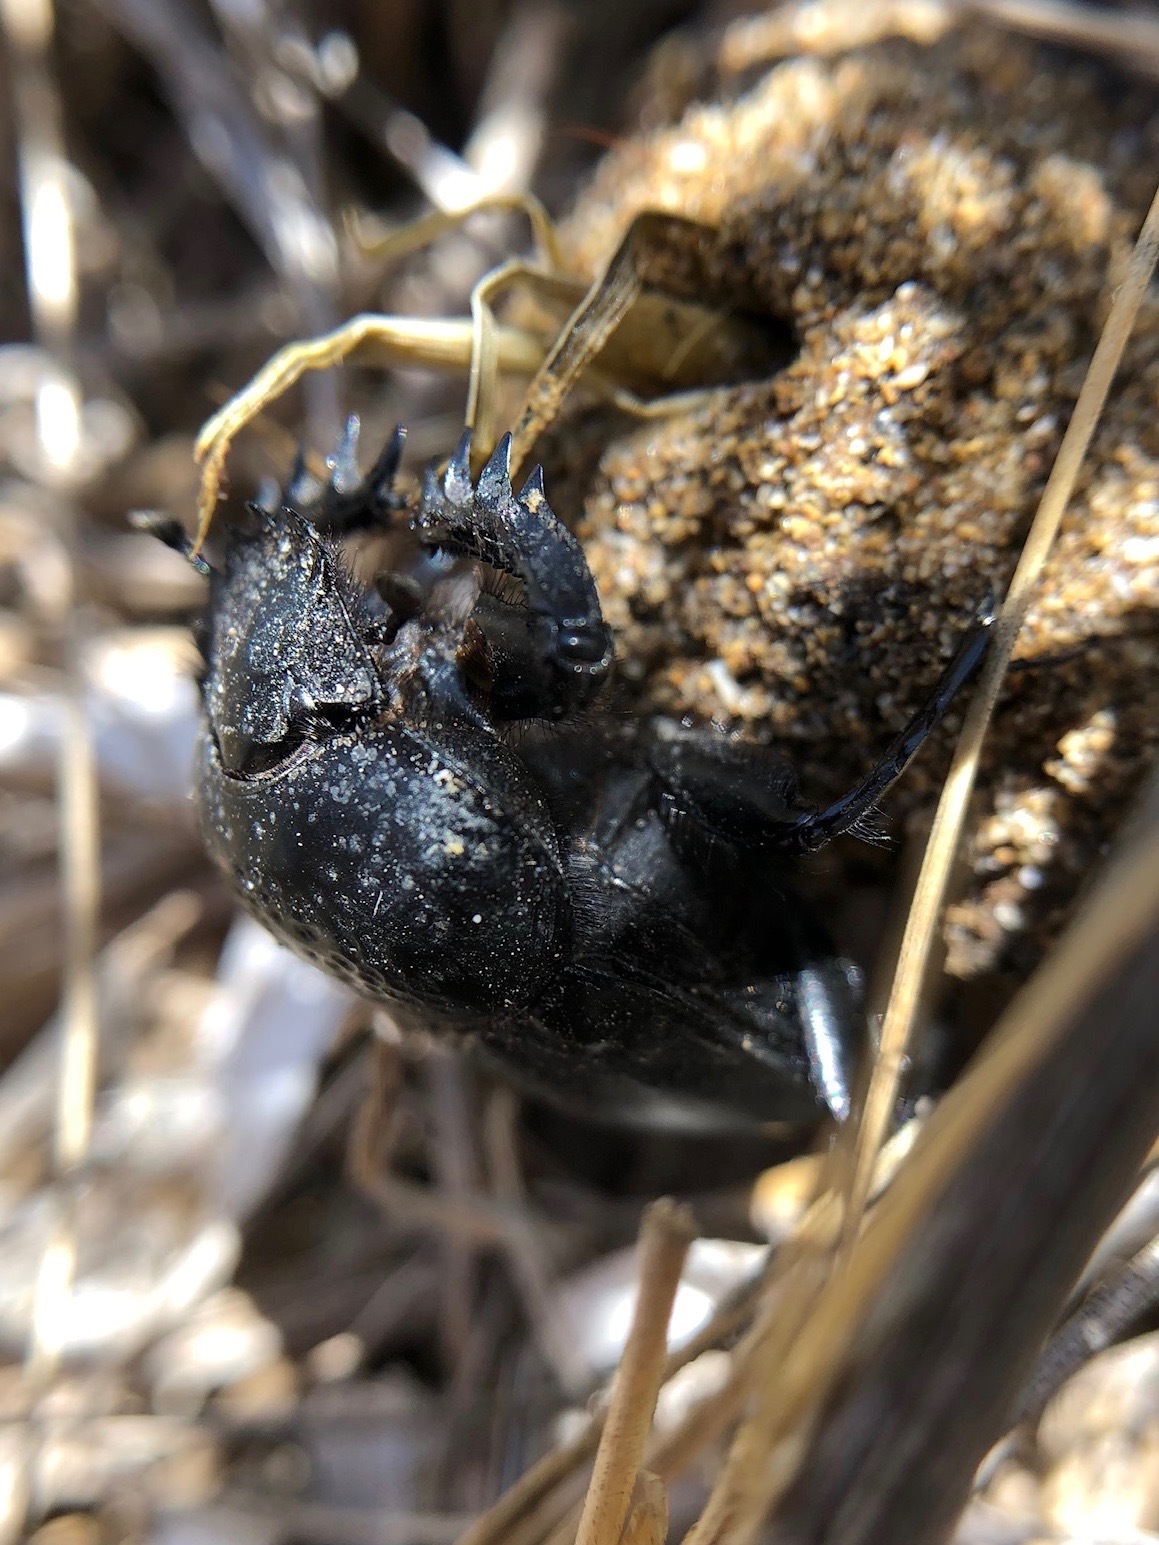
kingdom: Animalia
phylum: Arthropoda
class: Insecta
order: Coleoptera
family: Scarabaeidae
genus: Ateuchetus
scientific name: Ateuchetus semipunctatus
